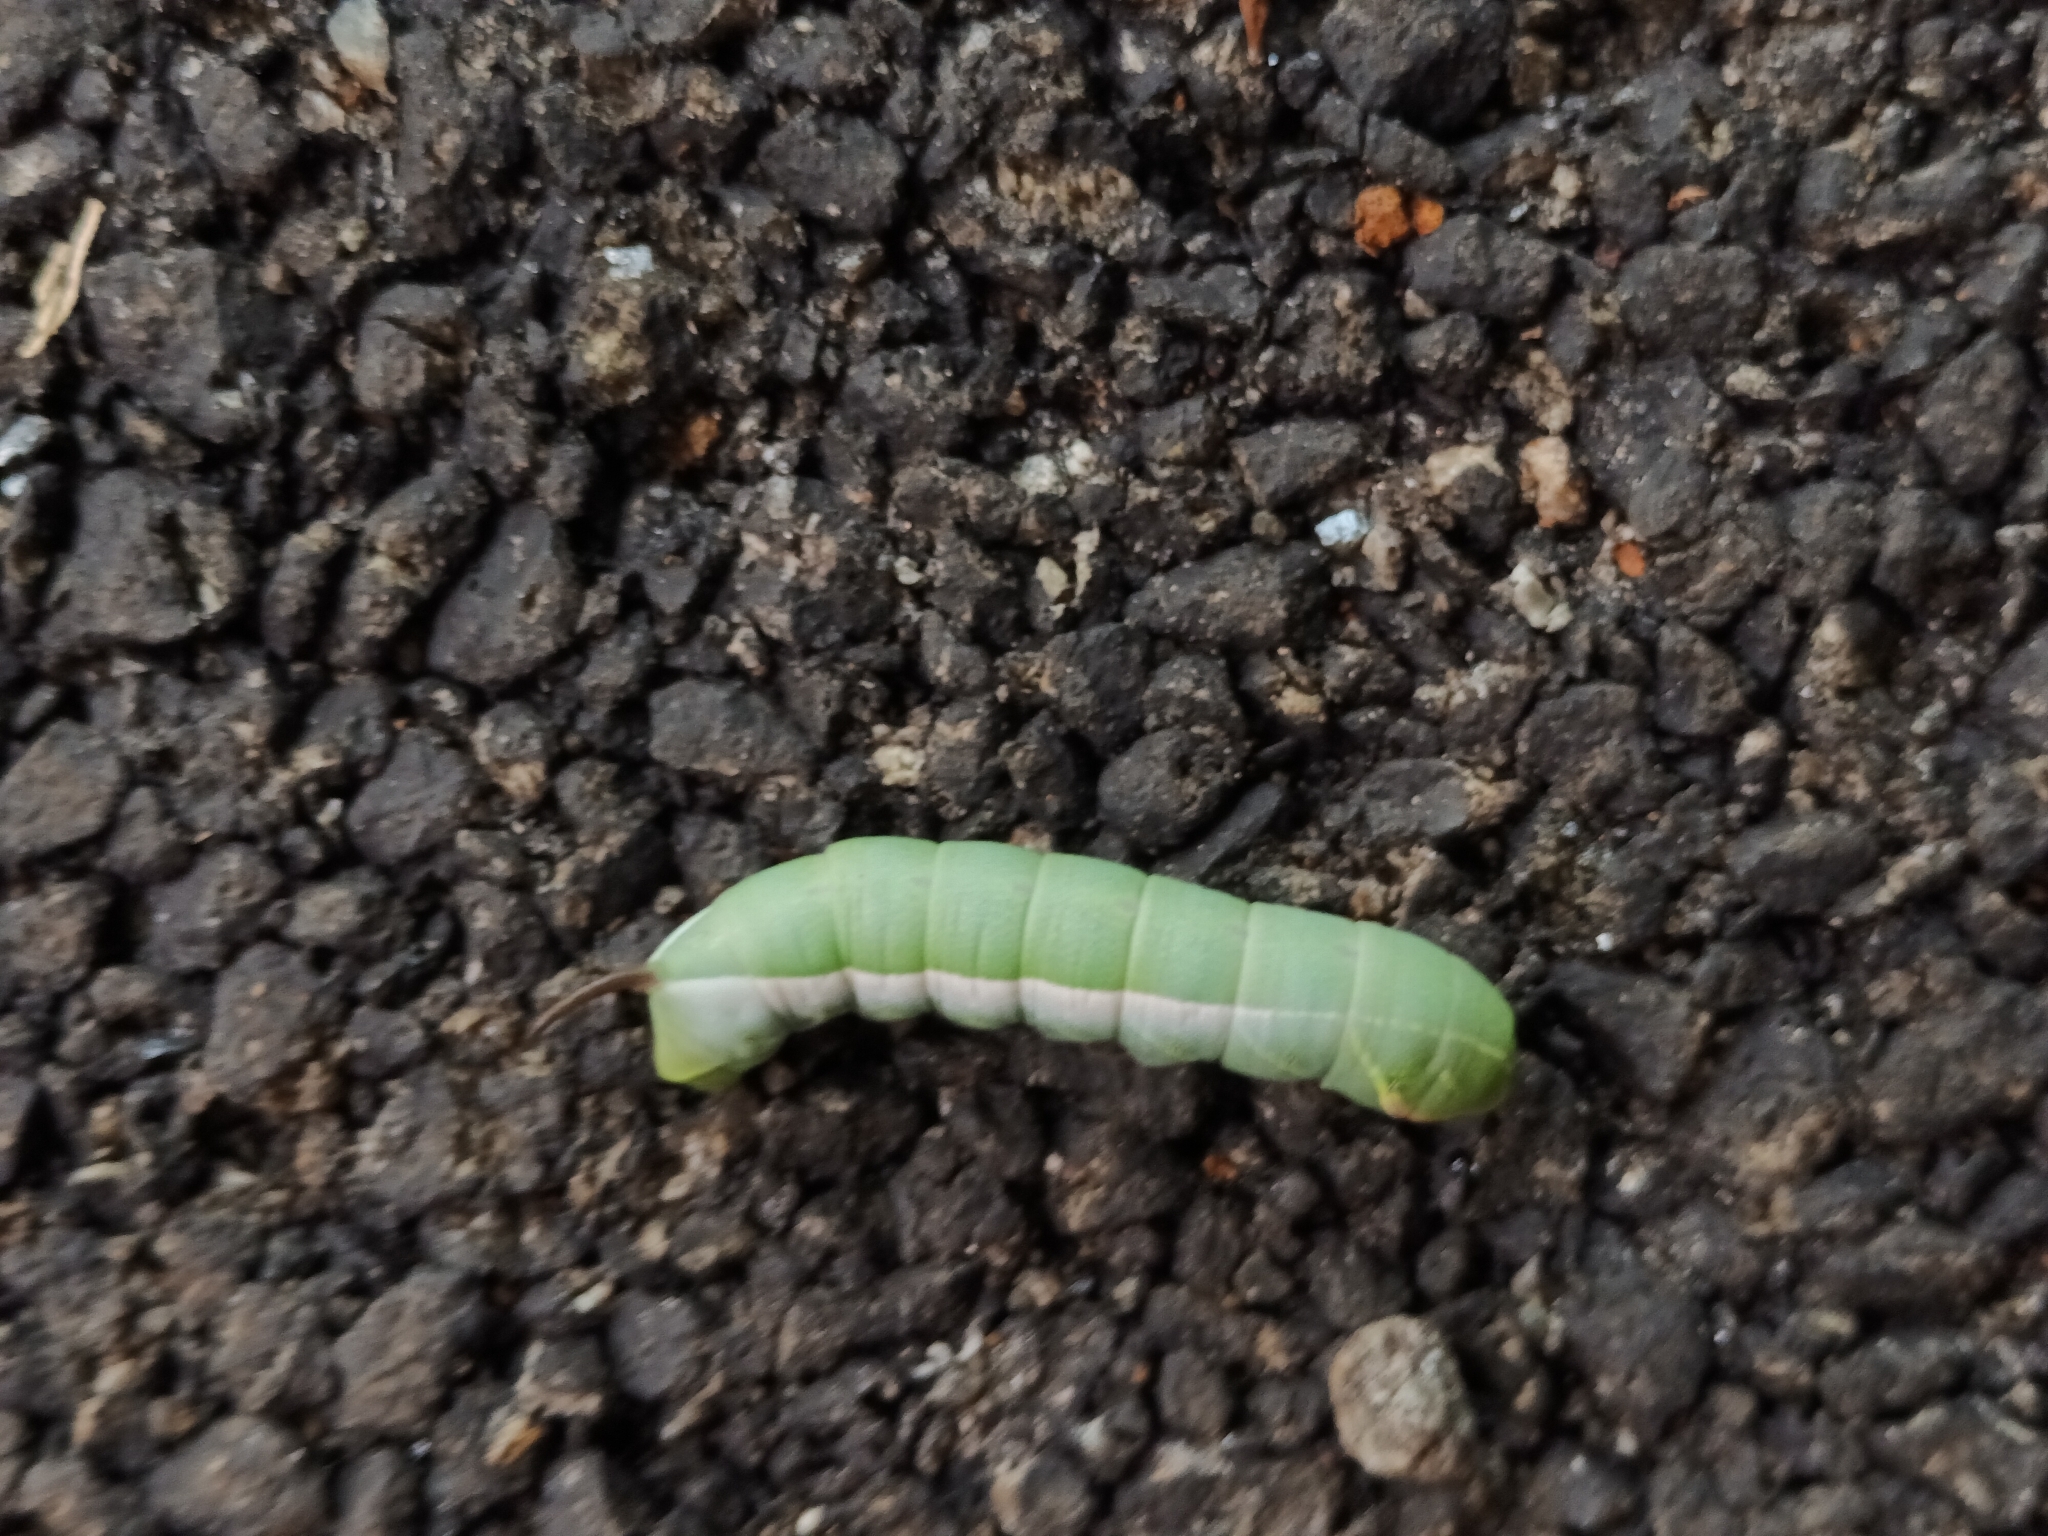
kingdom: Animalia
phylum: Arthropoda
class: Insecta
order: Lepidoptera
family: Sphingidae
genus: Acosmeryx
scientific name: Acosmeryx anceus
